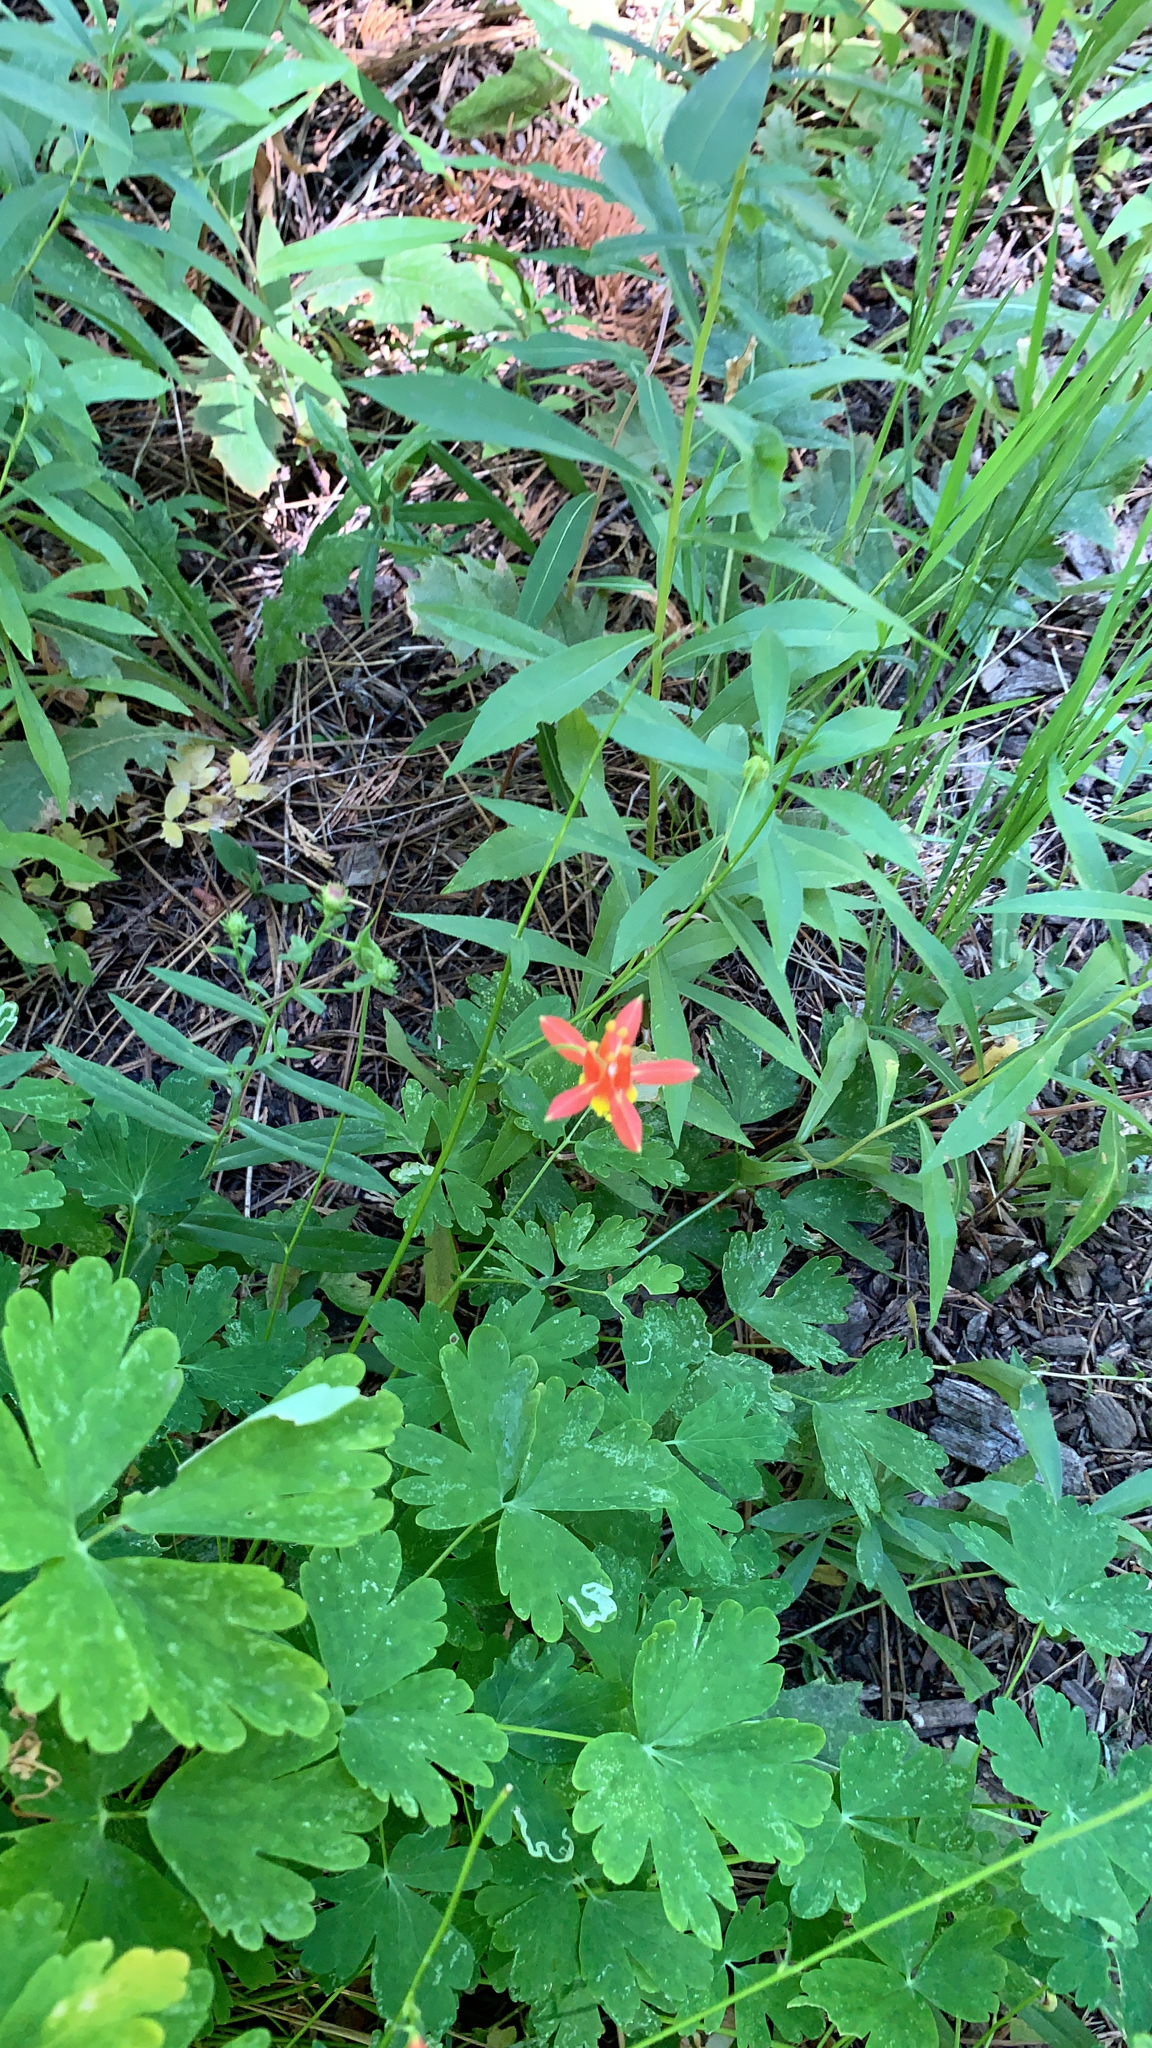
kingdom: Plantae
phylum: Tracheophyta
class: Magnoliopsida
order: Ranunculales
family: Ranunculaceae
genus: Aquilegia
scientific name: Aquilegia formosa
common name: Sitka columbine
